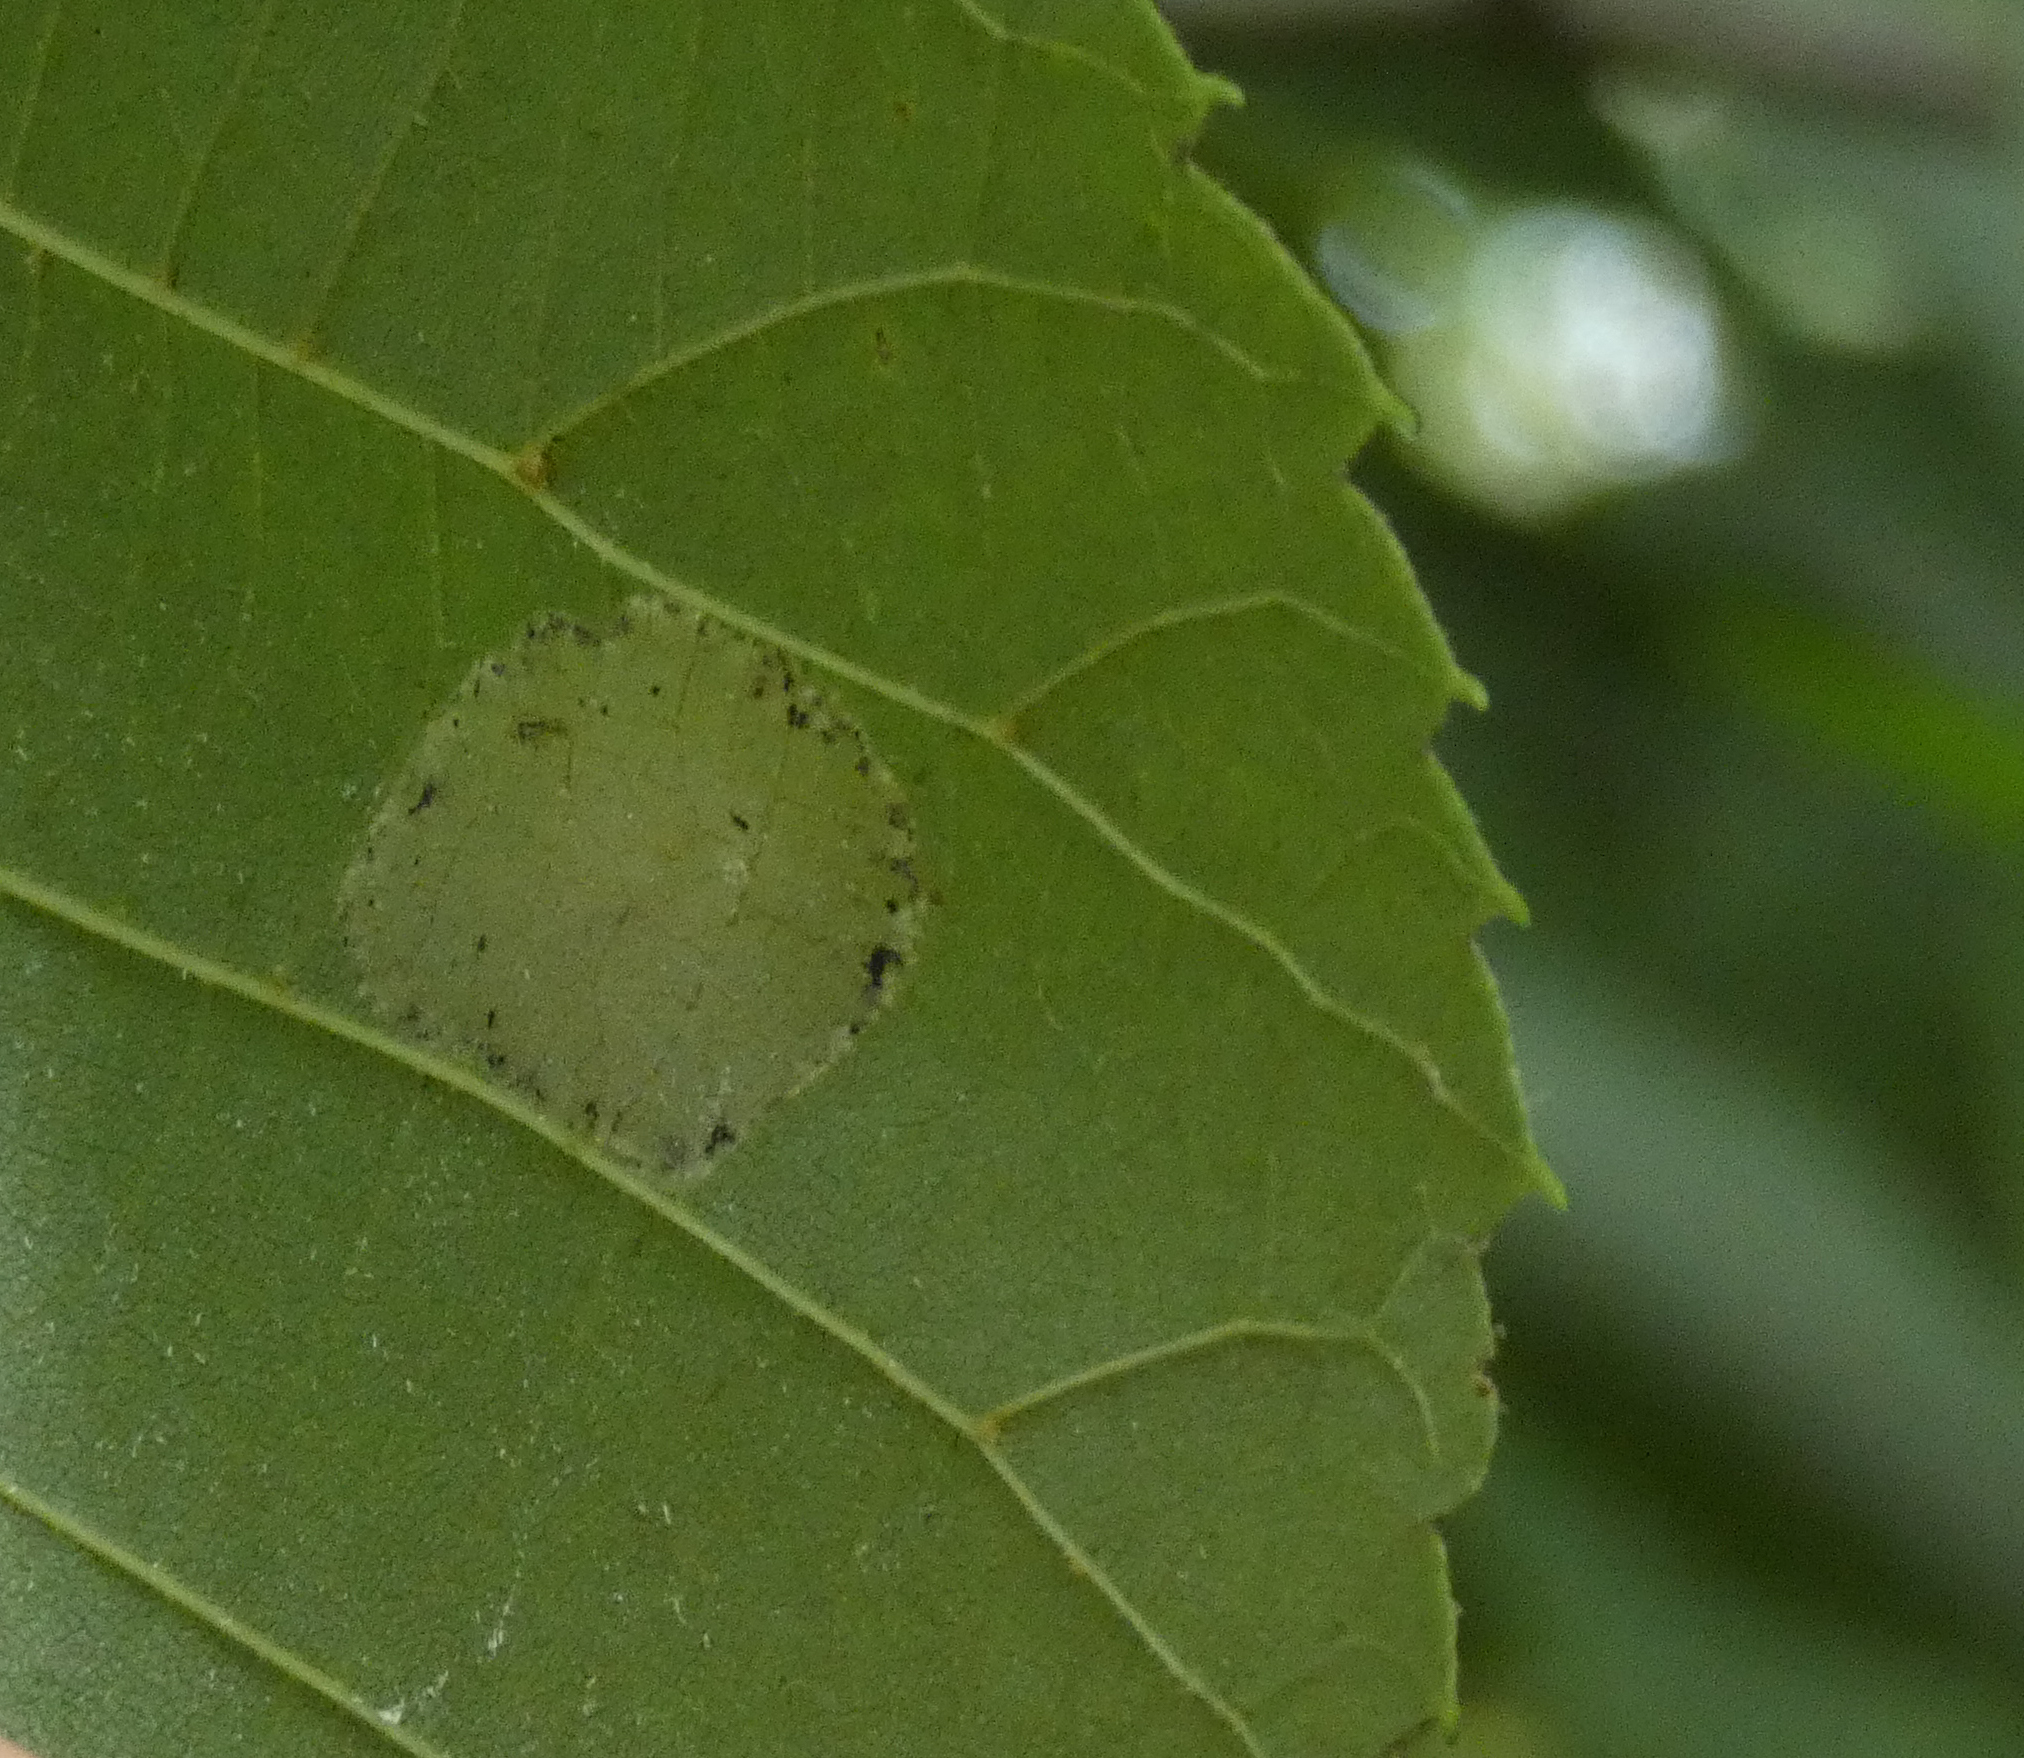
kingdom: Animalia
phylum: Arthropoda
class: Insecta
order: Lepidoptera
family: Gracillariidae
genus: Phyllonorycter
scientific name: Phyllonorycter lucetiella
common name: Basswood miner moth
